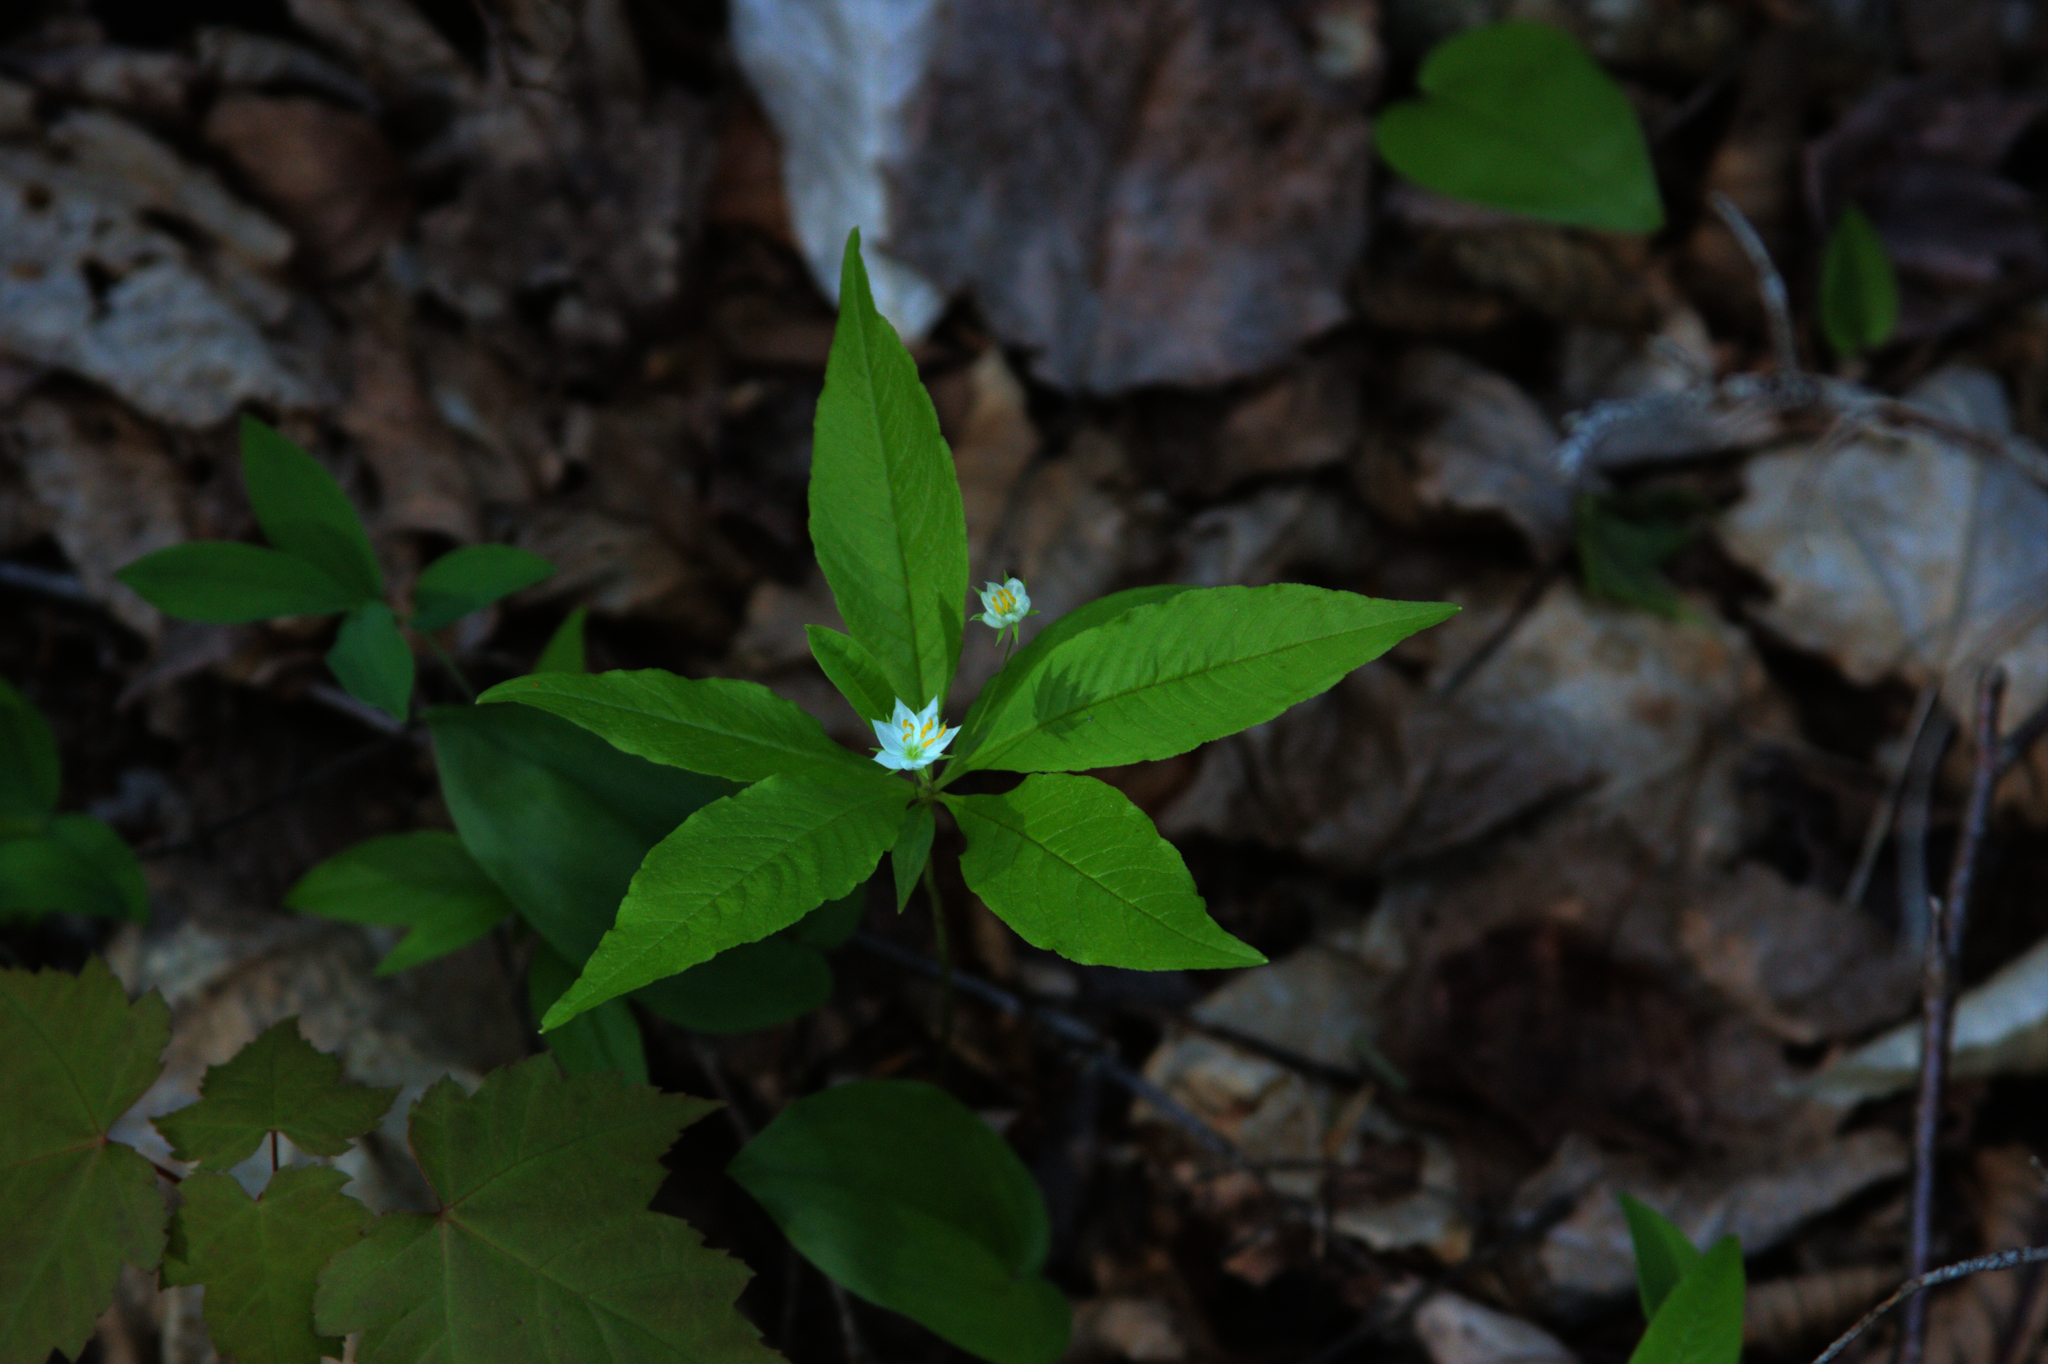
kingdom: Plantae
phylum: Tracheophyta
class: Magnoliopsida
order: Ericales
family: Primulaceae
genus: Lysimachia
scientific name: Lysimachia borealis
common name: American starflower
